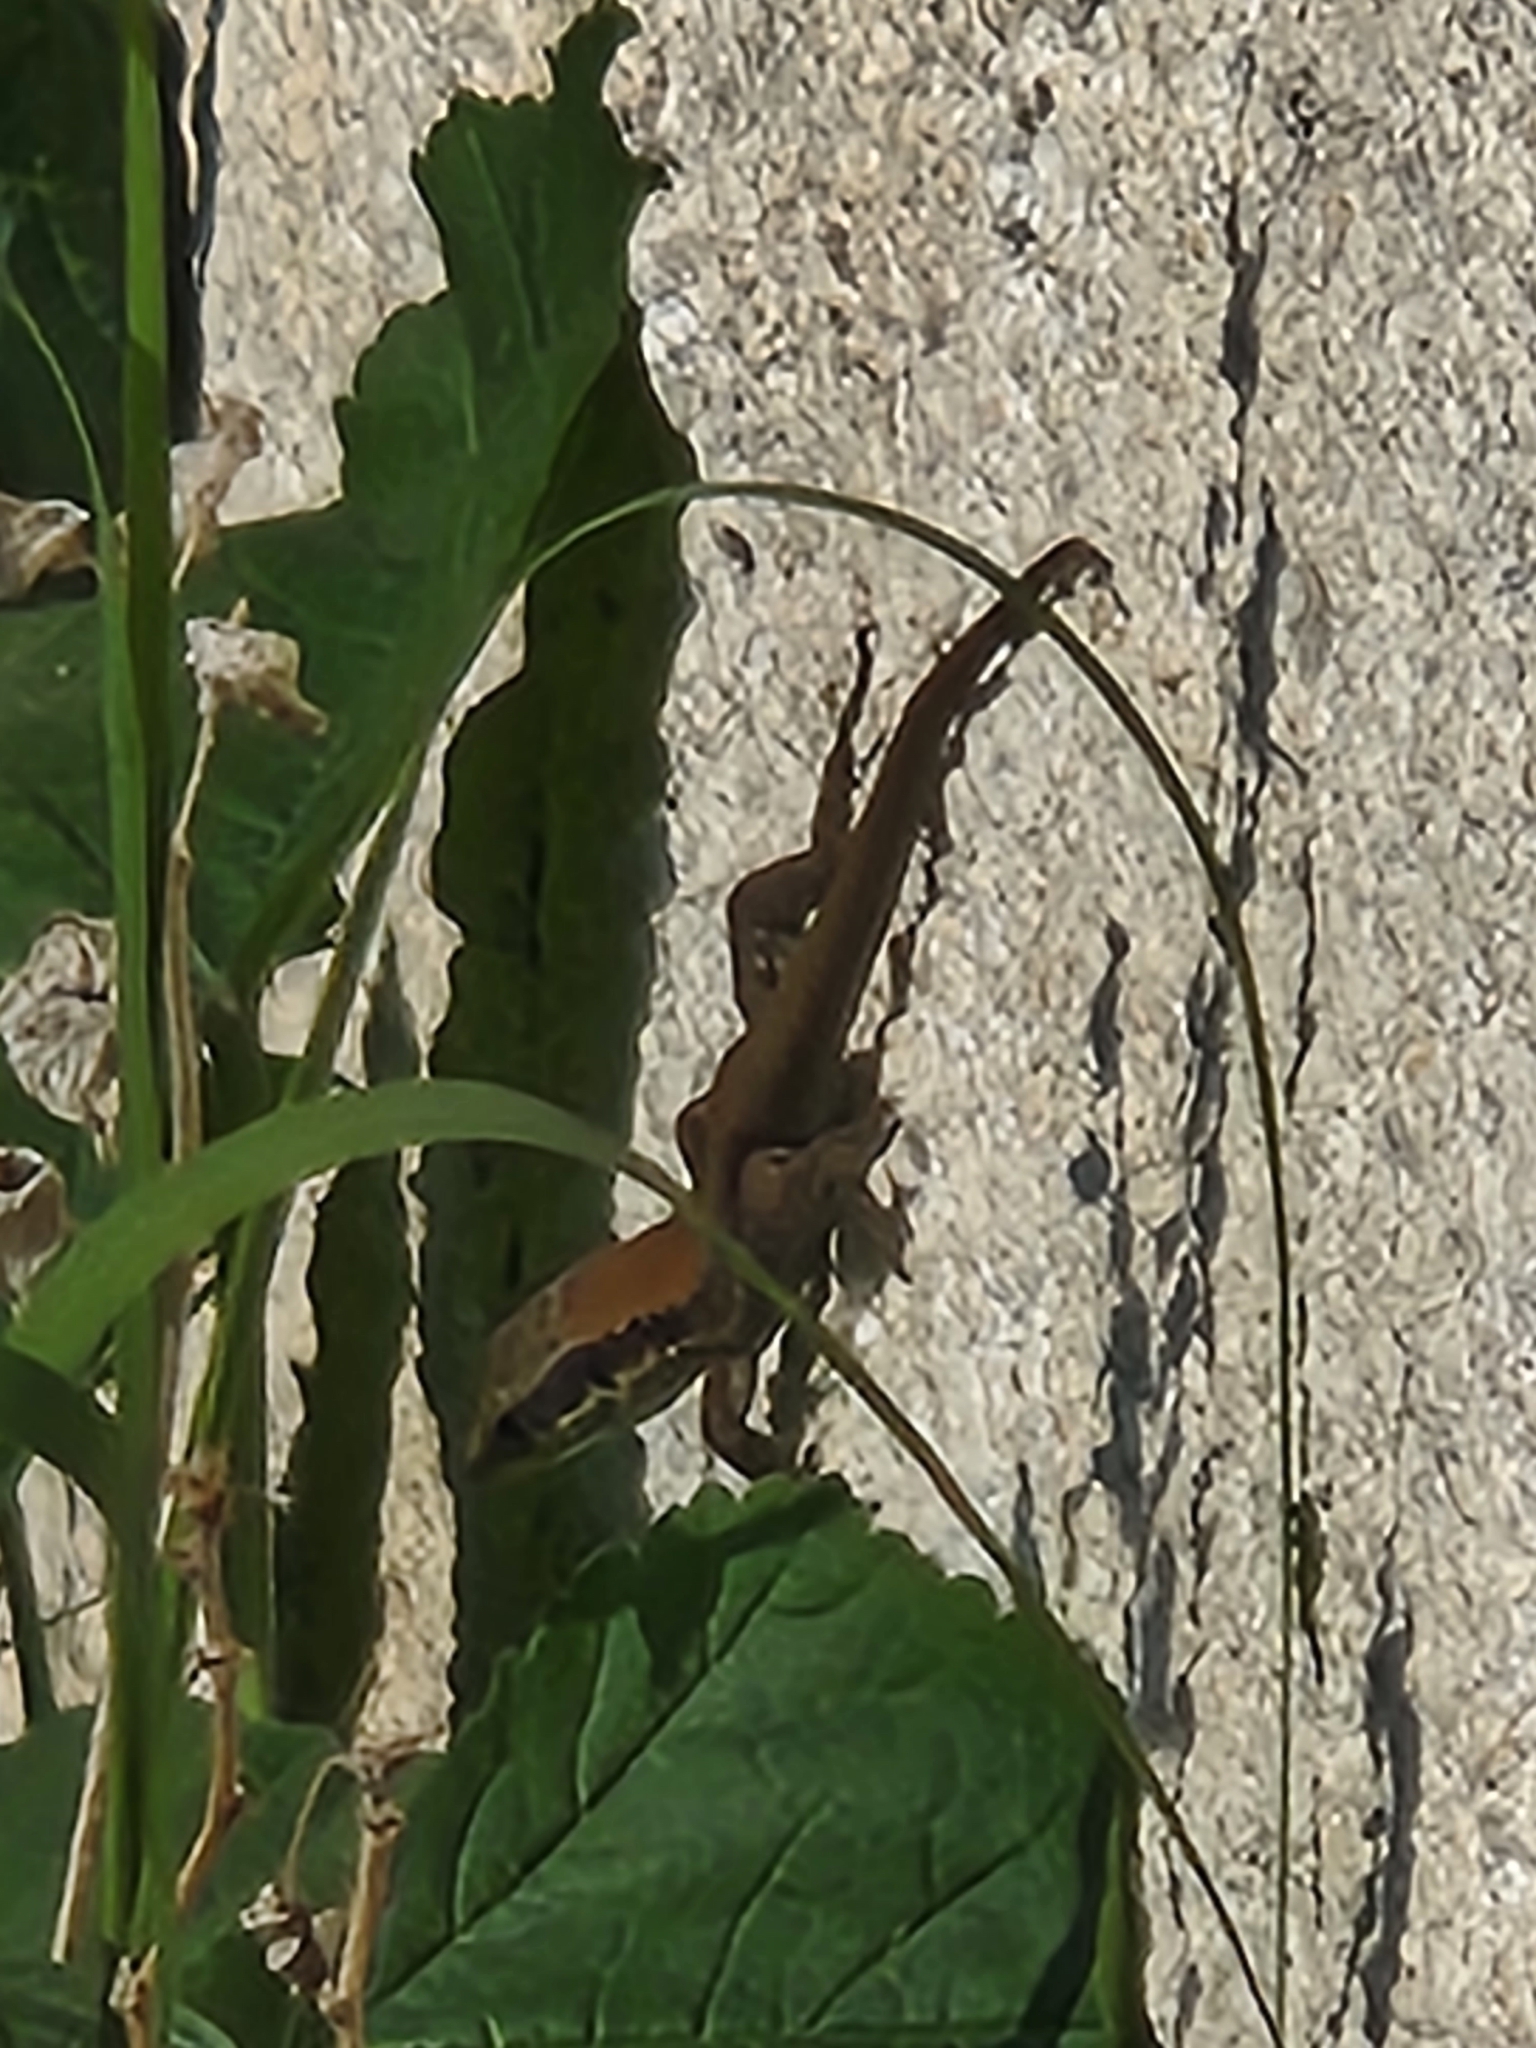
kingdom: Animalia
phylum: Chordata
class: Squamata
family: Lacertidae
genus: Phoenicolacerta
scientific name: Phoenicolacerta laevis
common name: Lebanon lizard
